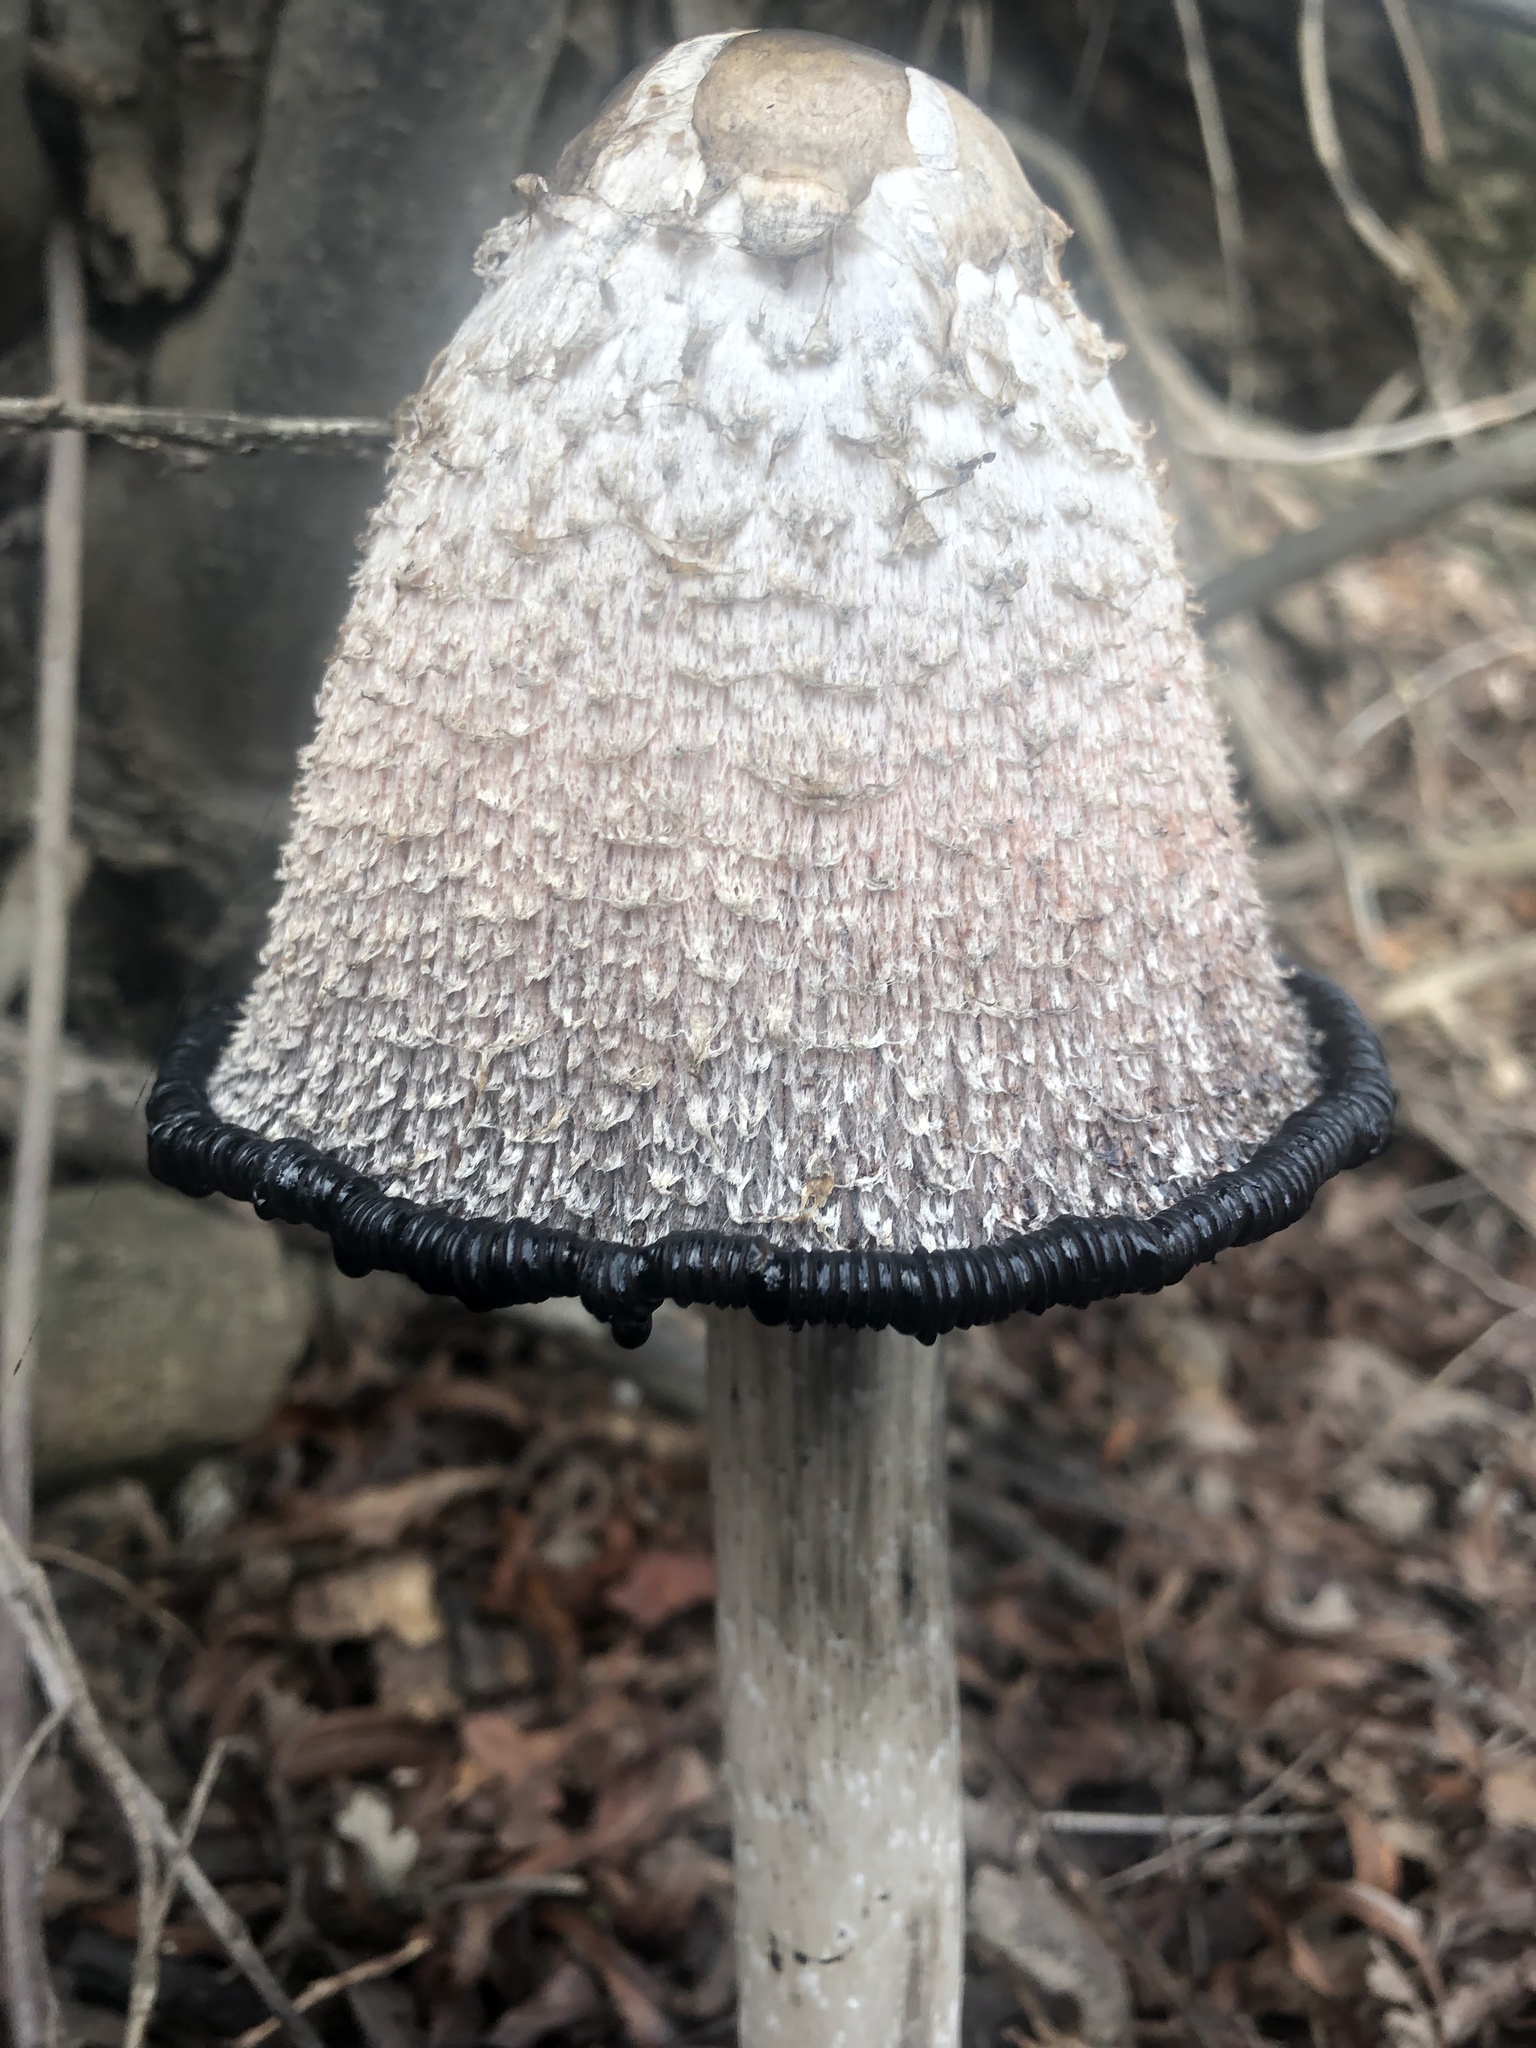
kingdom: Fungi
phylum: Basidiomycota
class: Agaricomycetes
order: Agaricales
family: Agaricaceae
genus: Coprinus
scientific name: Coprinus comatus
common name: Lawyer's wig
